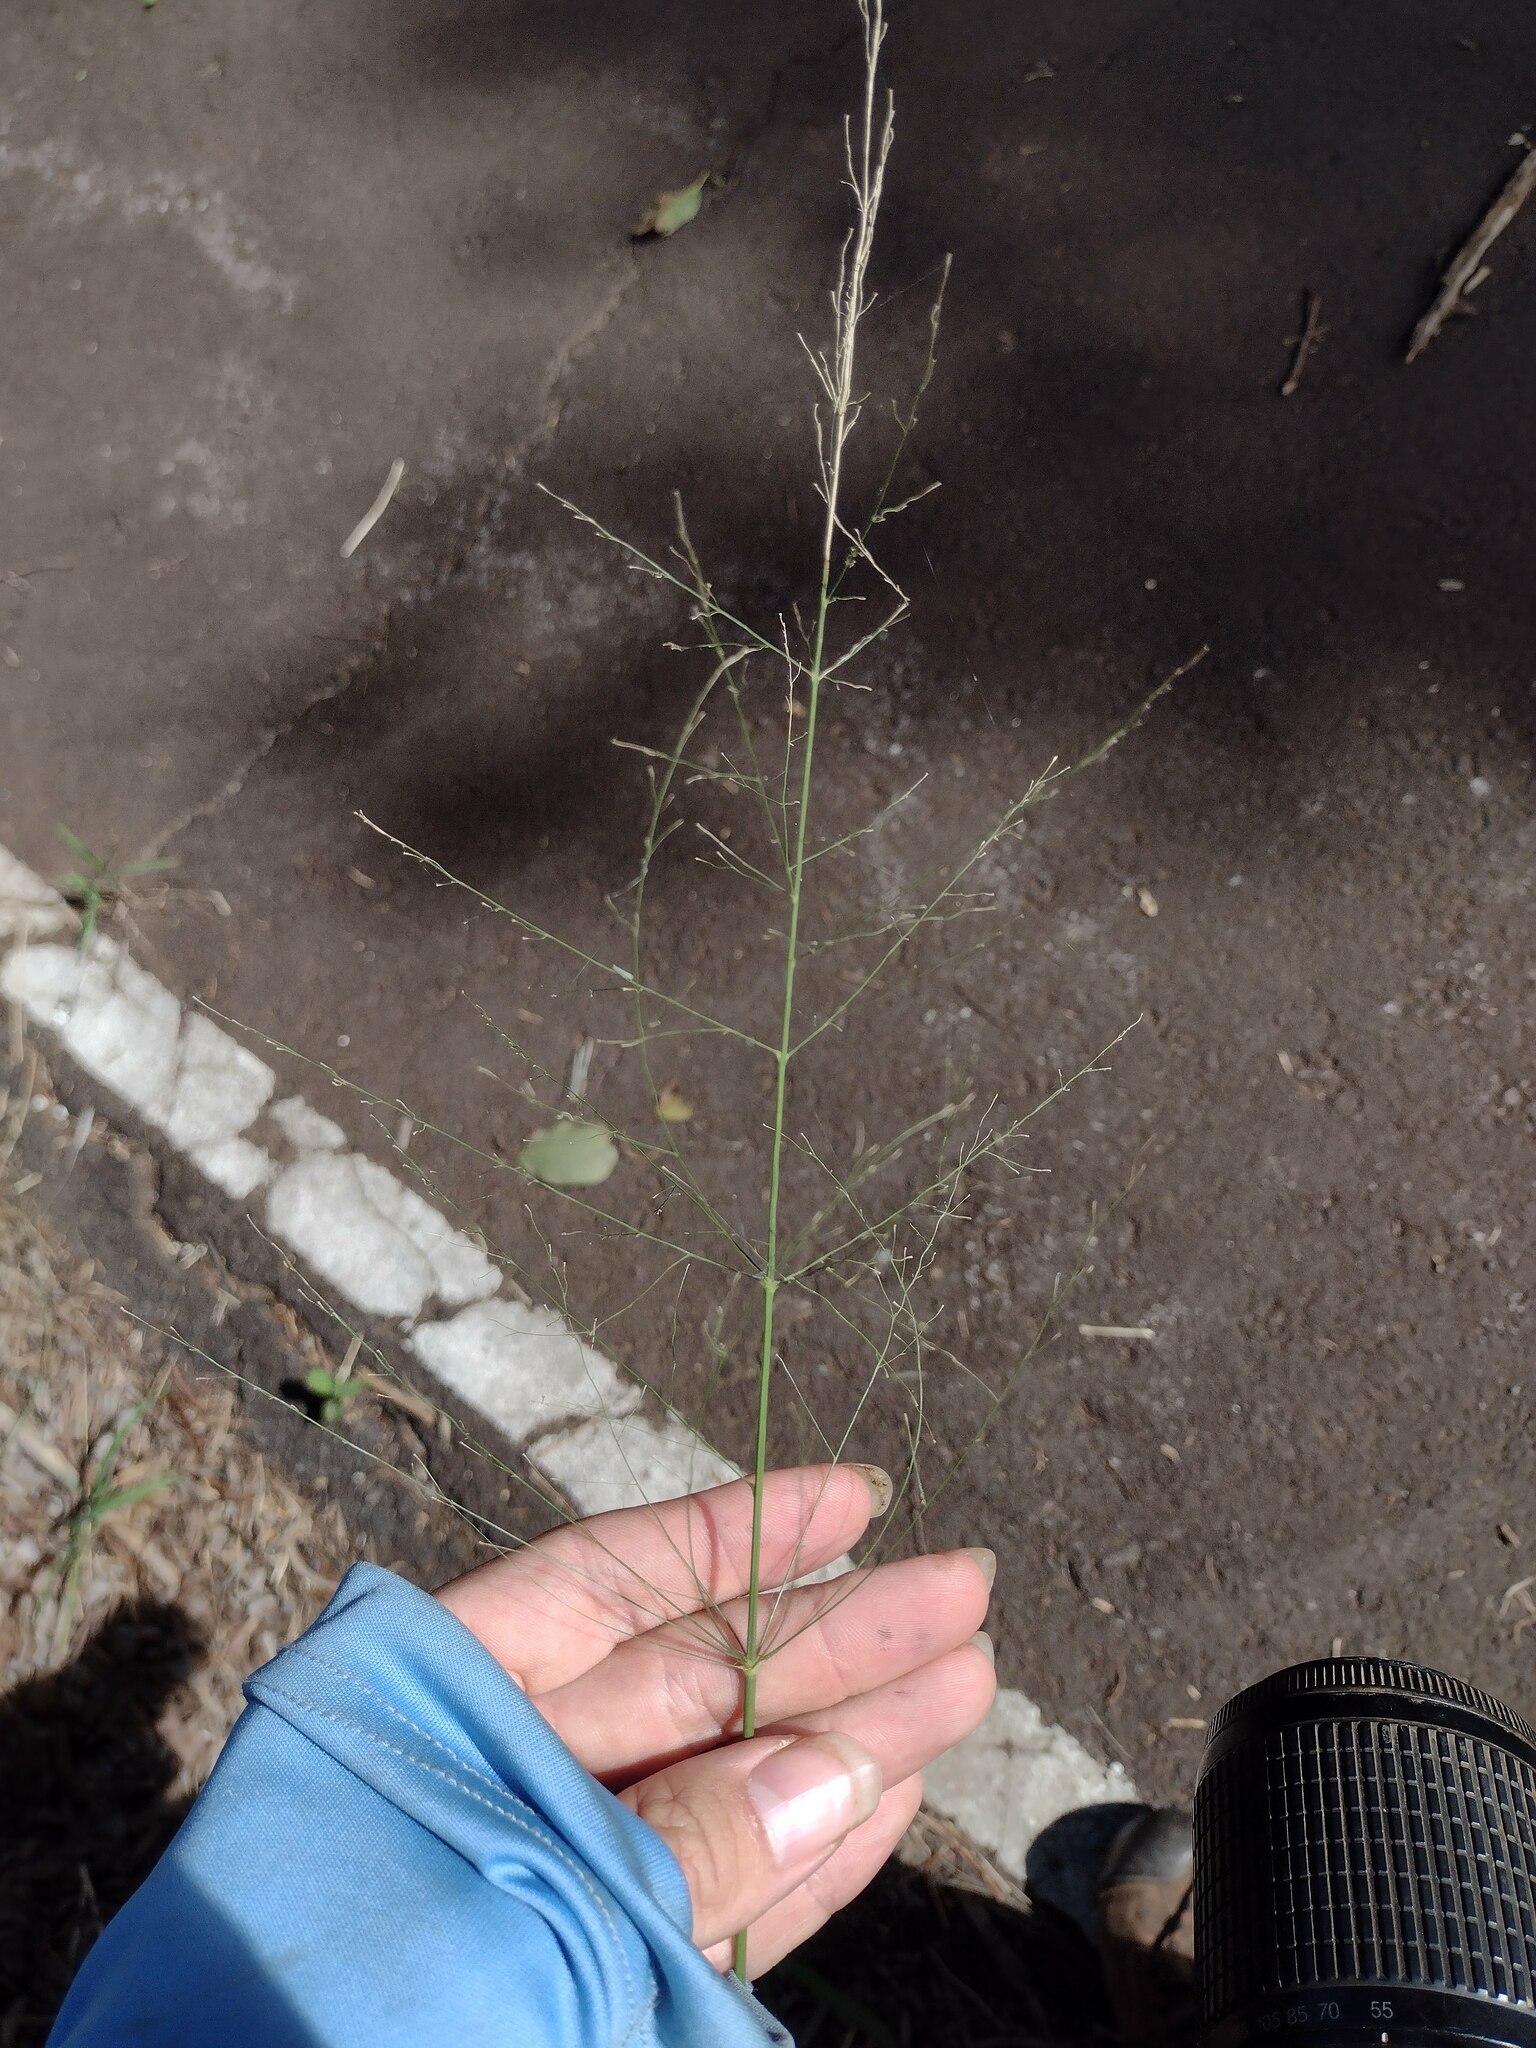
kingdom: Plantae
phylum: Tracheophyta
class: Liliopsida
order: Poales
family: Poaceae
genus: Megathyrsus
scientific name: Megathyrsus maximus
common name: Guineagrass
